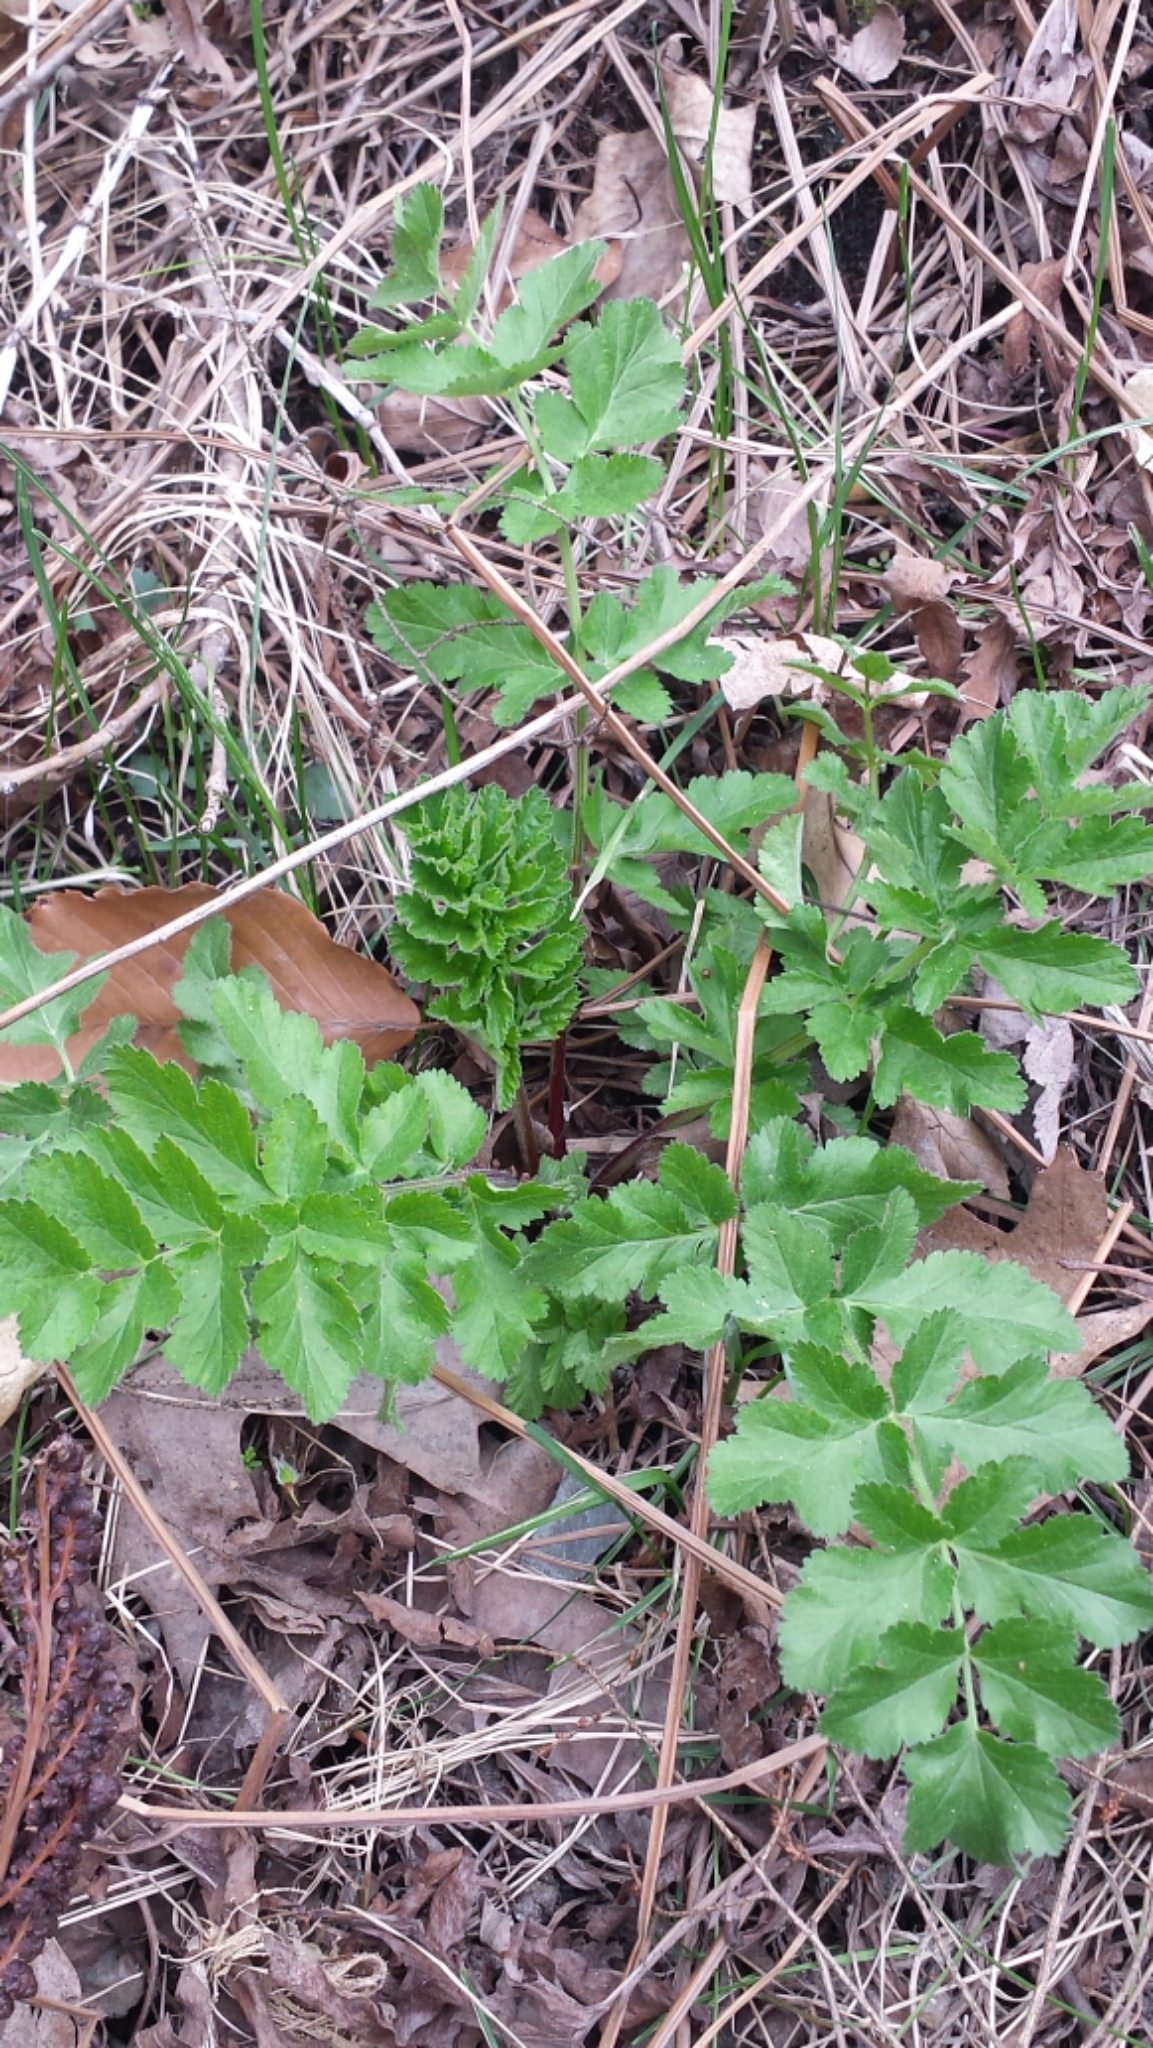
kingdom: Plantae
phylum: Tracheophyta
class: Magnoliopsida
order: Apiales
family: Apiaceae
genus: Pastinaca
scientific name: Pastinaca sativa
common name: Wild parsnip
